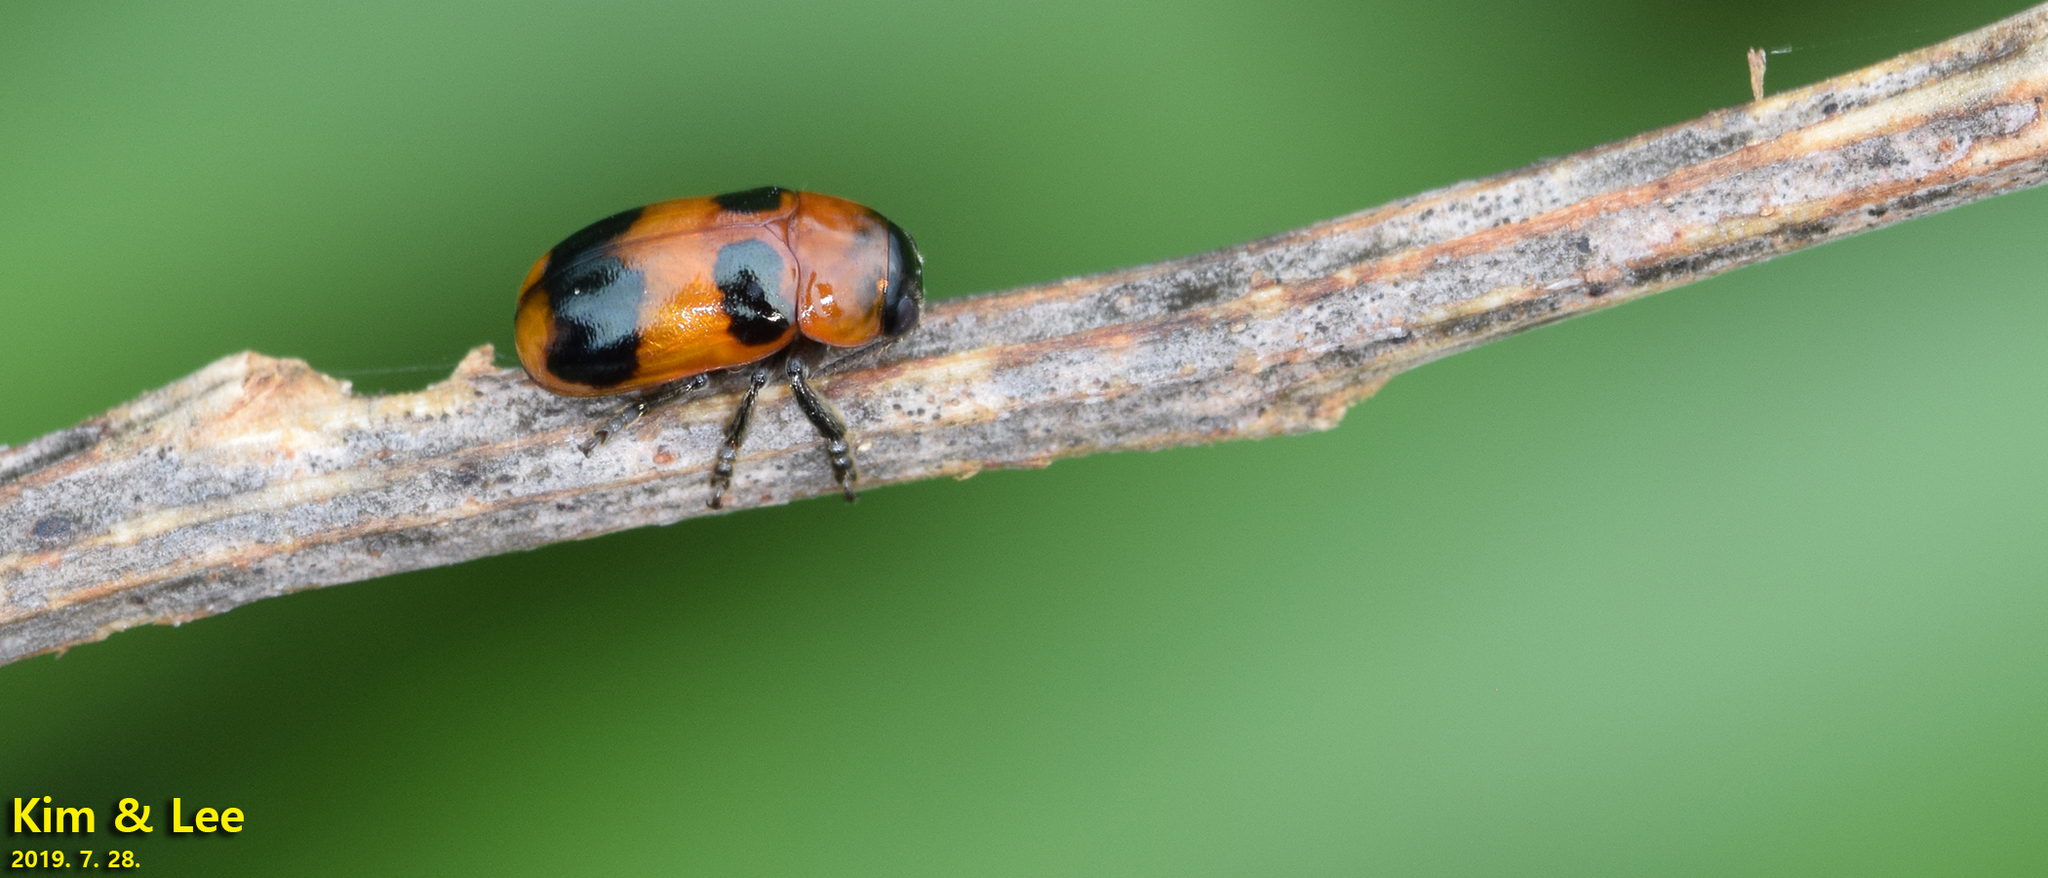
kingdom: Animalia
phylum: Arthropoda
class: Insecta
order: Coleoptera
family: Chrysomelidae
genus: Physosmaragdina
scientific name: Physosmaragdina nigrifrons
